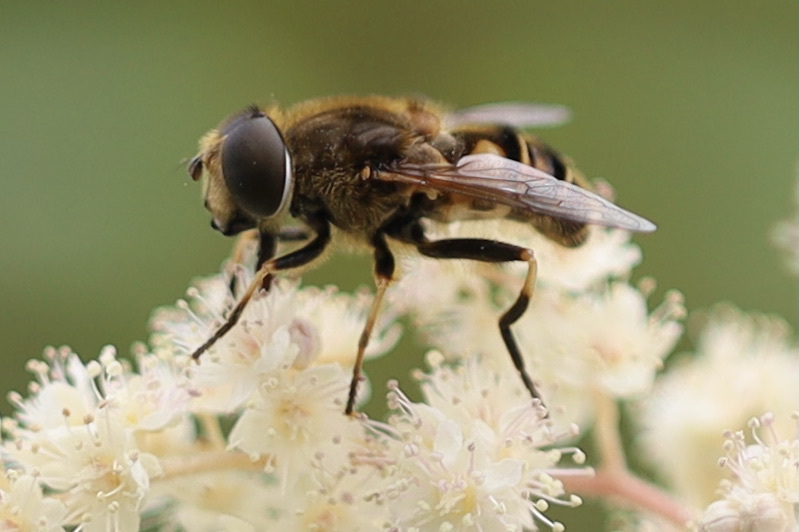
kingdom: Animalia
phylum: Arthropoda
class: Insecta
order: Diptera
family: Syrphidae
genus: Eristalis
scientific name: Eristalis nemorum
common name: Orange-spined drone fly
